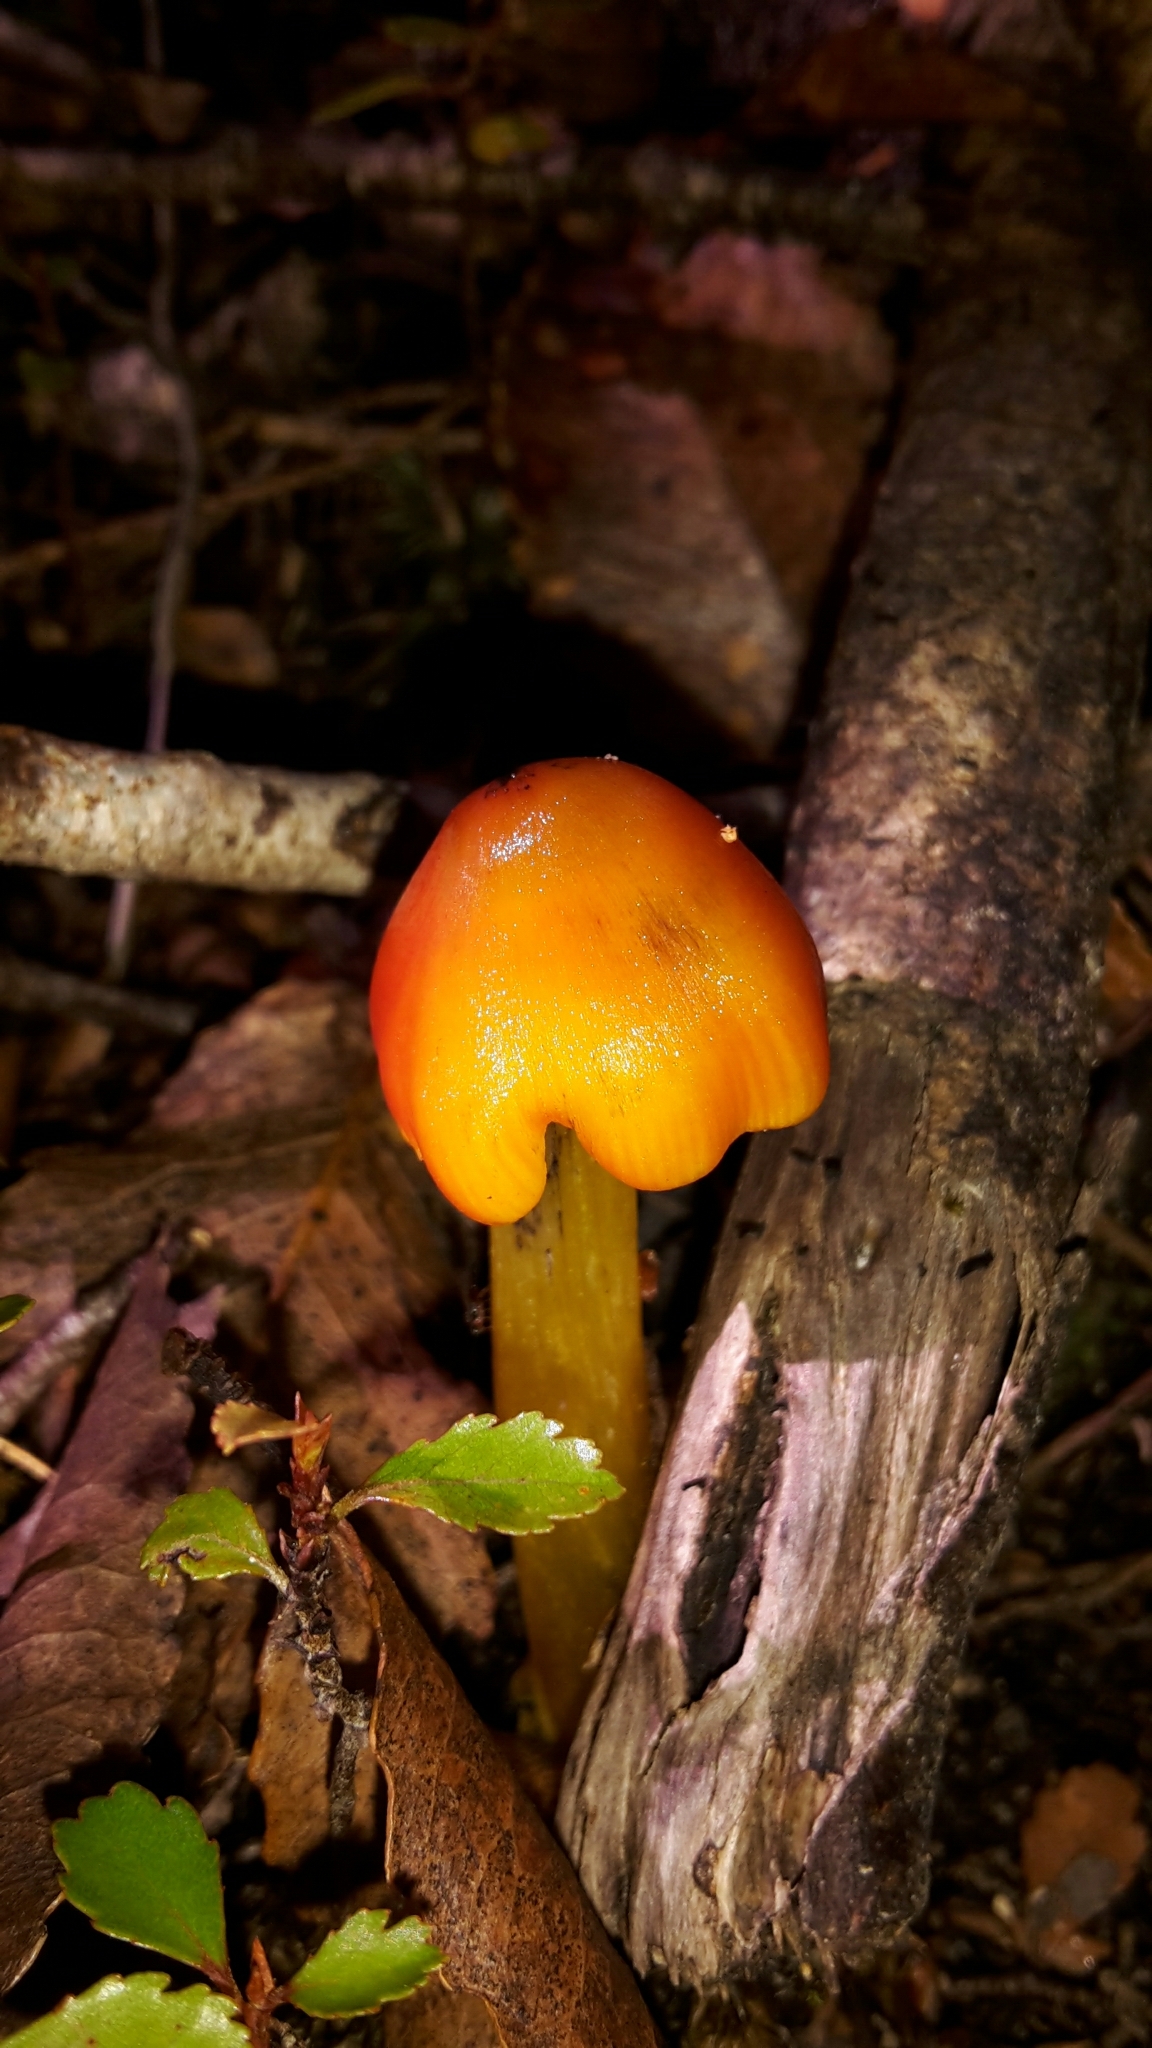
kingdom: Fungi
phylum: Basidiomycota
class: Agaricomycetes
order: Agaricales
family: Hygrophoraceae
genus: Hygrocybe
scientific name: Hygrocybe conica
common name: Blackening wax-cap
